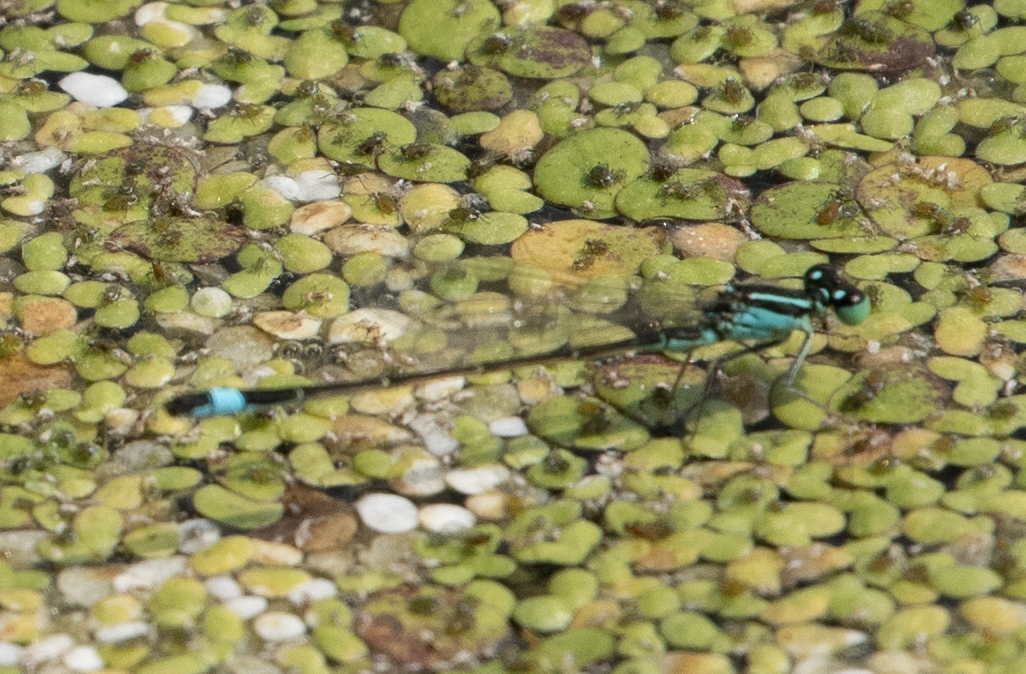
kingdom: Animalia
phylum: Arthropoda
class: Insecta
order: Odonata
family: Coenagrionidae
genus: Ischnura
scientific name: Ischnura elegans
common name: Blue-tailed damselfly
